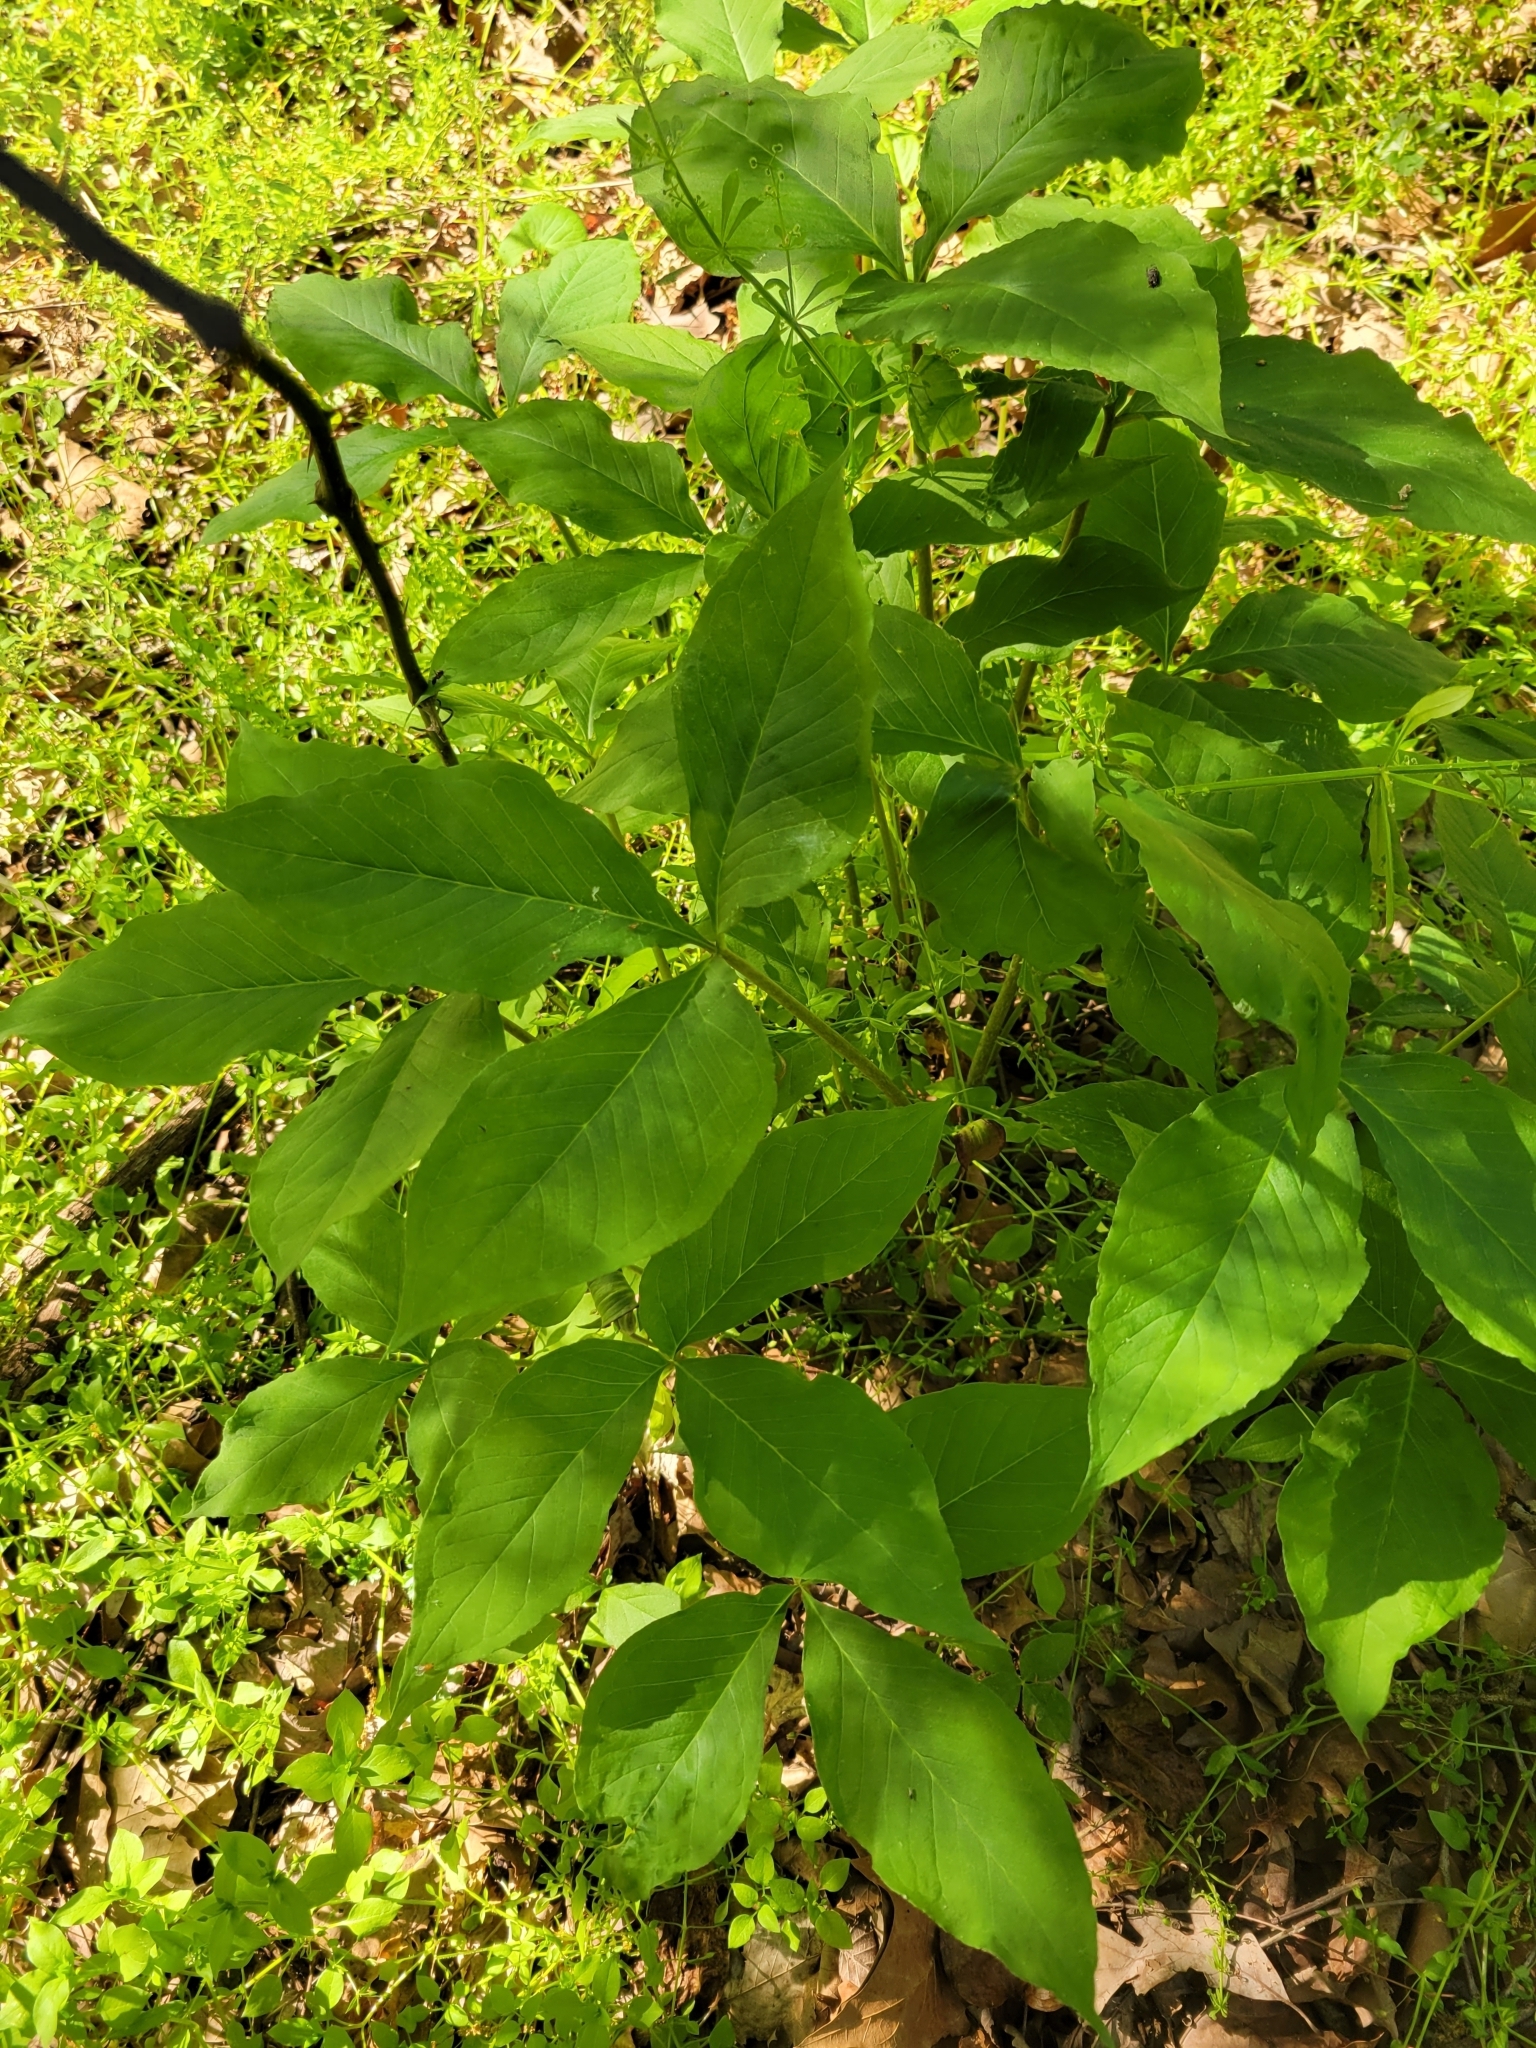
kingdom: Plantae
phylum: Tracheophyta
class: Liliopsida
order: Alismatales
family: Araceae
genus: Arisaema
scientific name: Arisaema triphyllum
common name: Jack-in-the-pulpit
